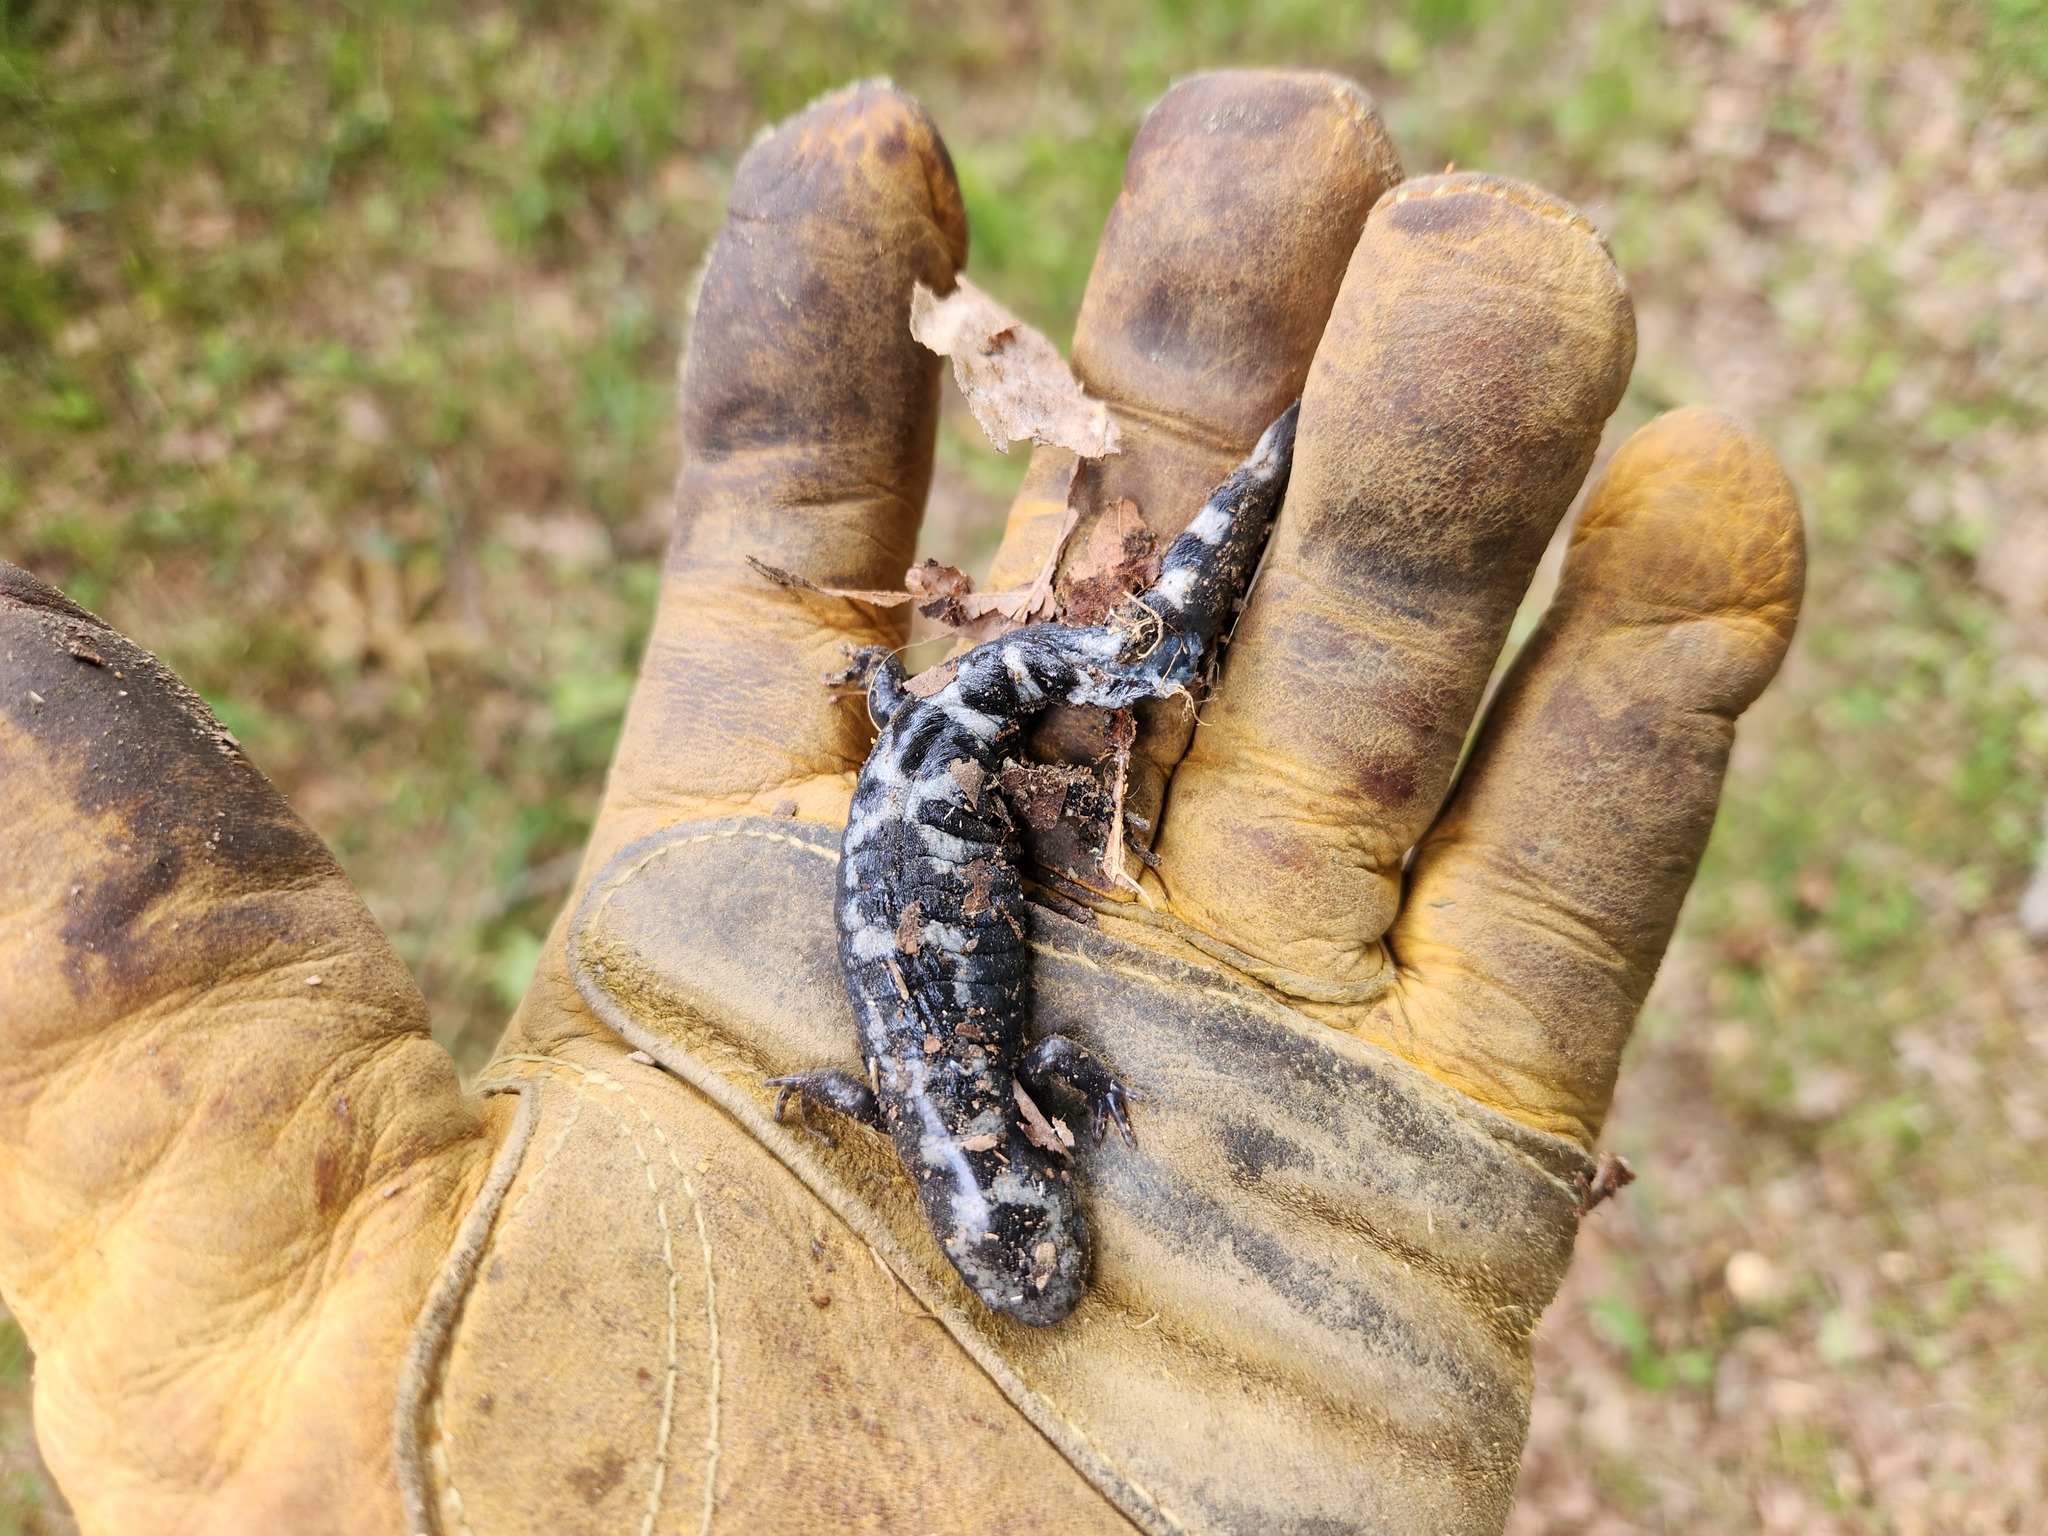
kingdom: Animalia
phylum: Chordata
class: Amphibia
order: Caudata
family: Ambystomatidae
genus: Ambystoma
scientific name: Ambystoma opacum
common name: Marbled salamander
